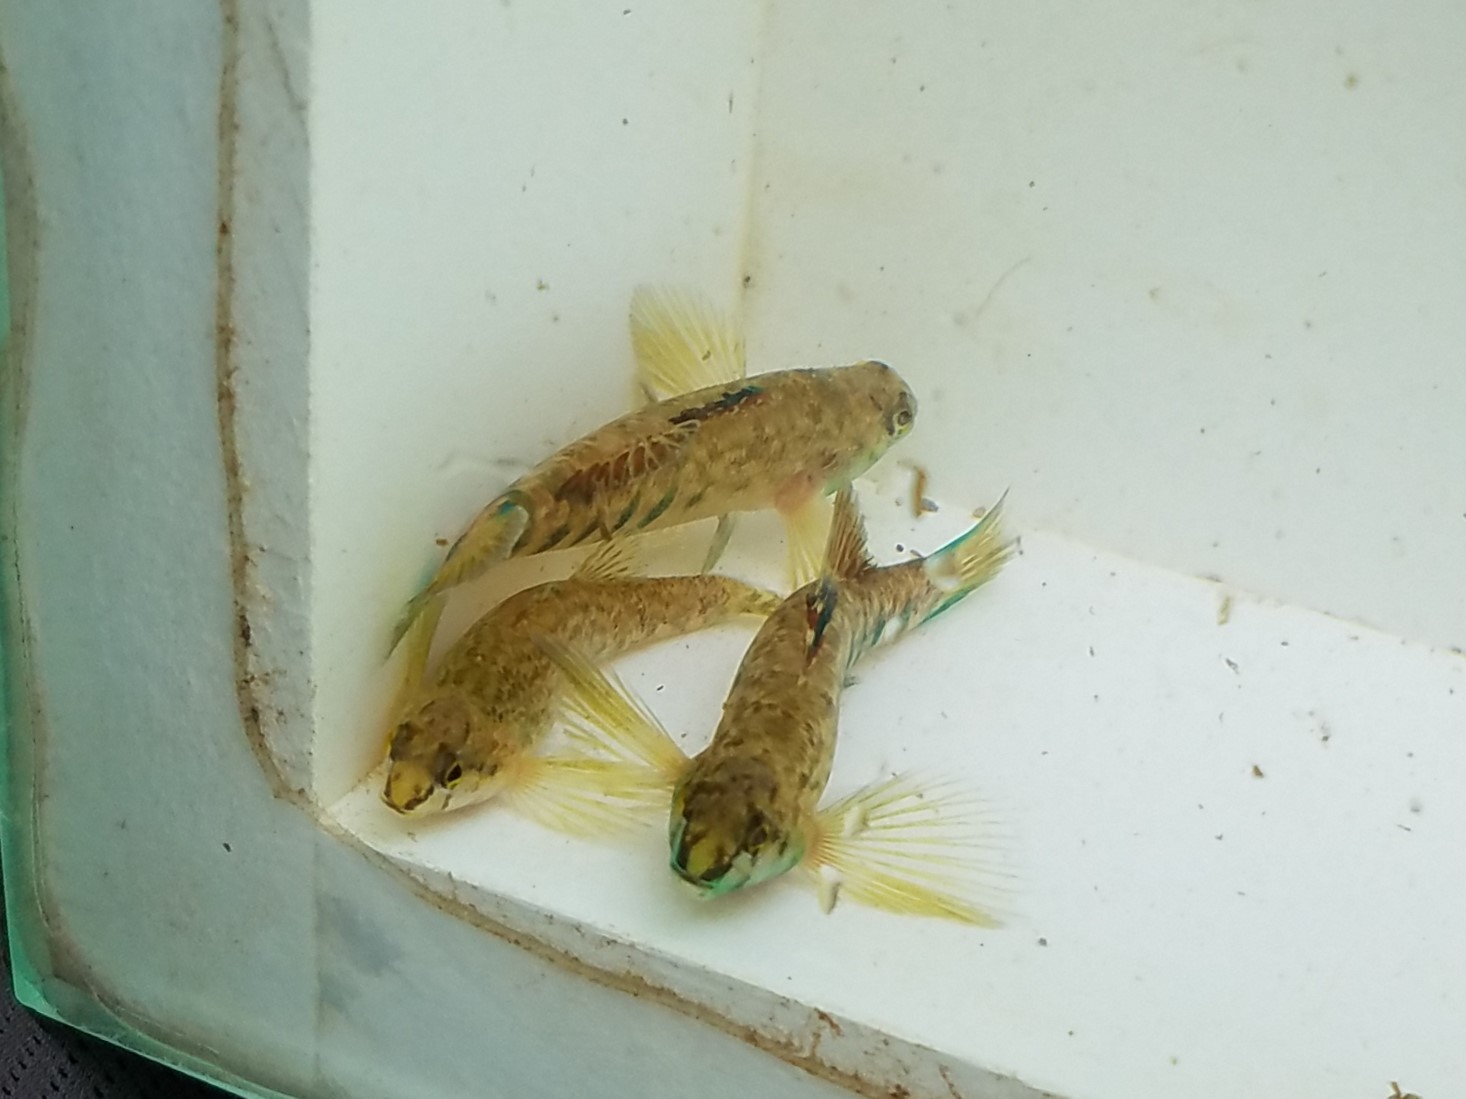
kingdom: Animalia
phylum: Chordata
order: Perciformes
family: Percidae
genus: Etheostoma
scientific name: Etheostoma coosae
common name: Coosa darter
